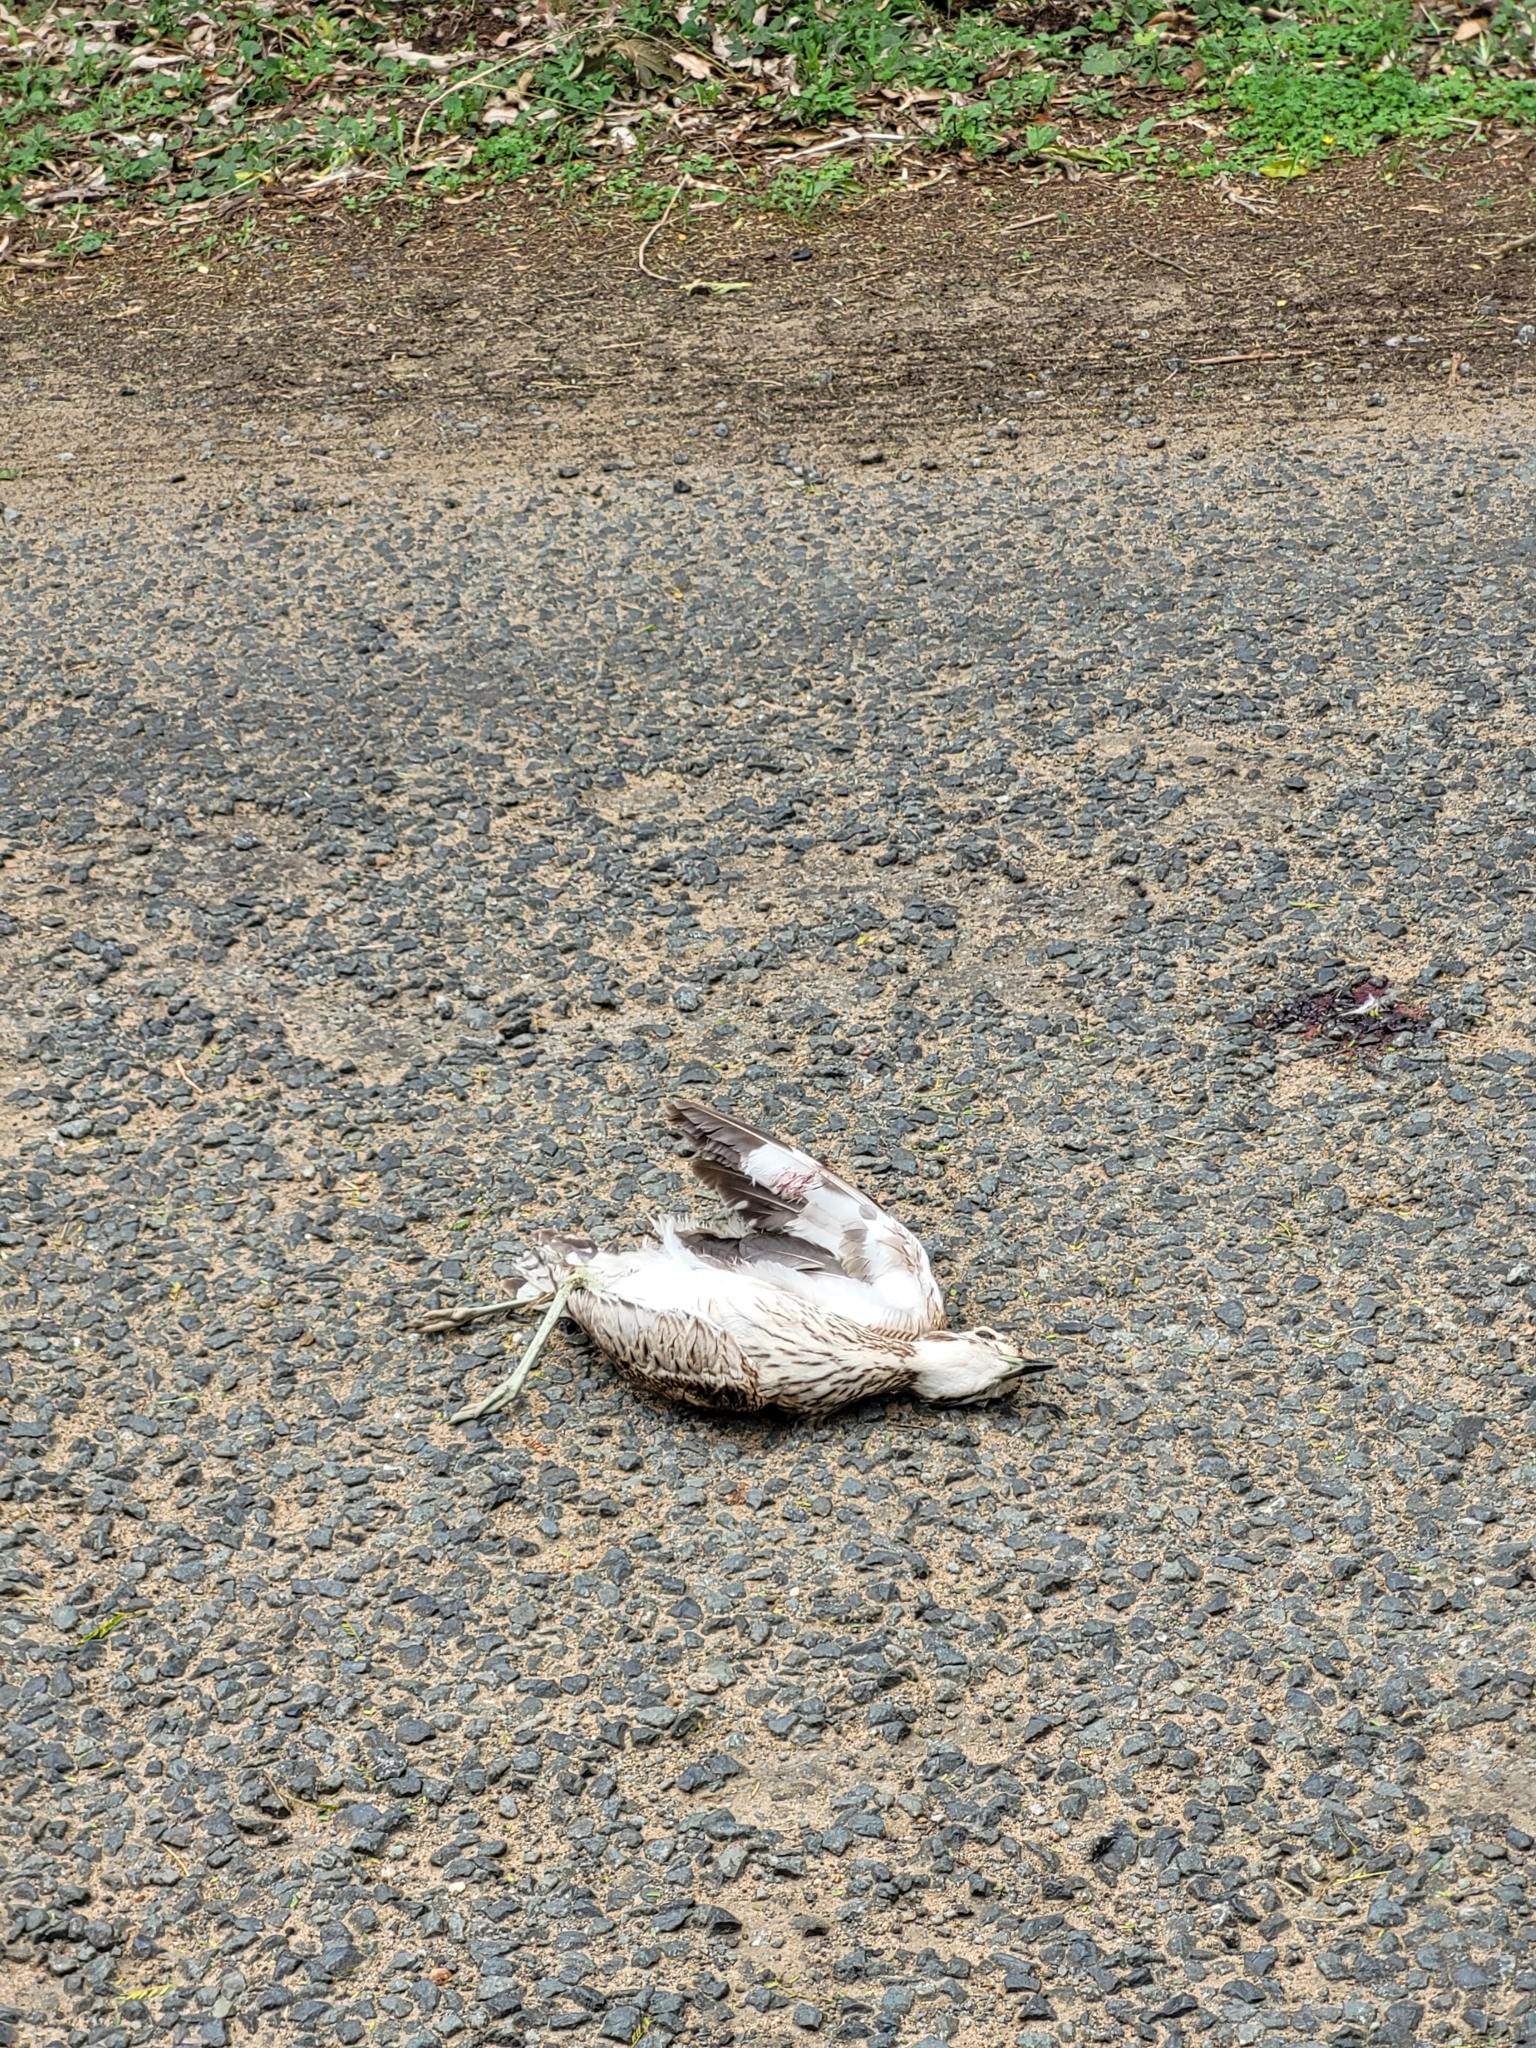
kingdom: Animalia
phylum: Chordata
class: Aves
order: Charadriiformes
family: Burhinidae
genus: Burhinus
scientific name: Burhinus capensis
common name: Spotted thick-knee
